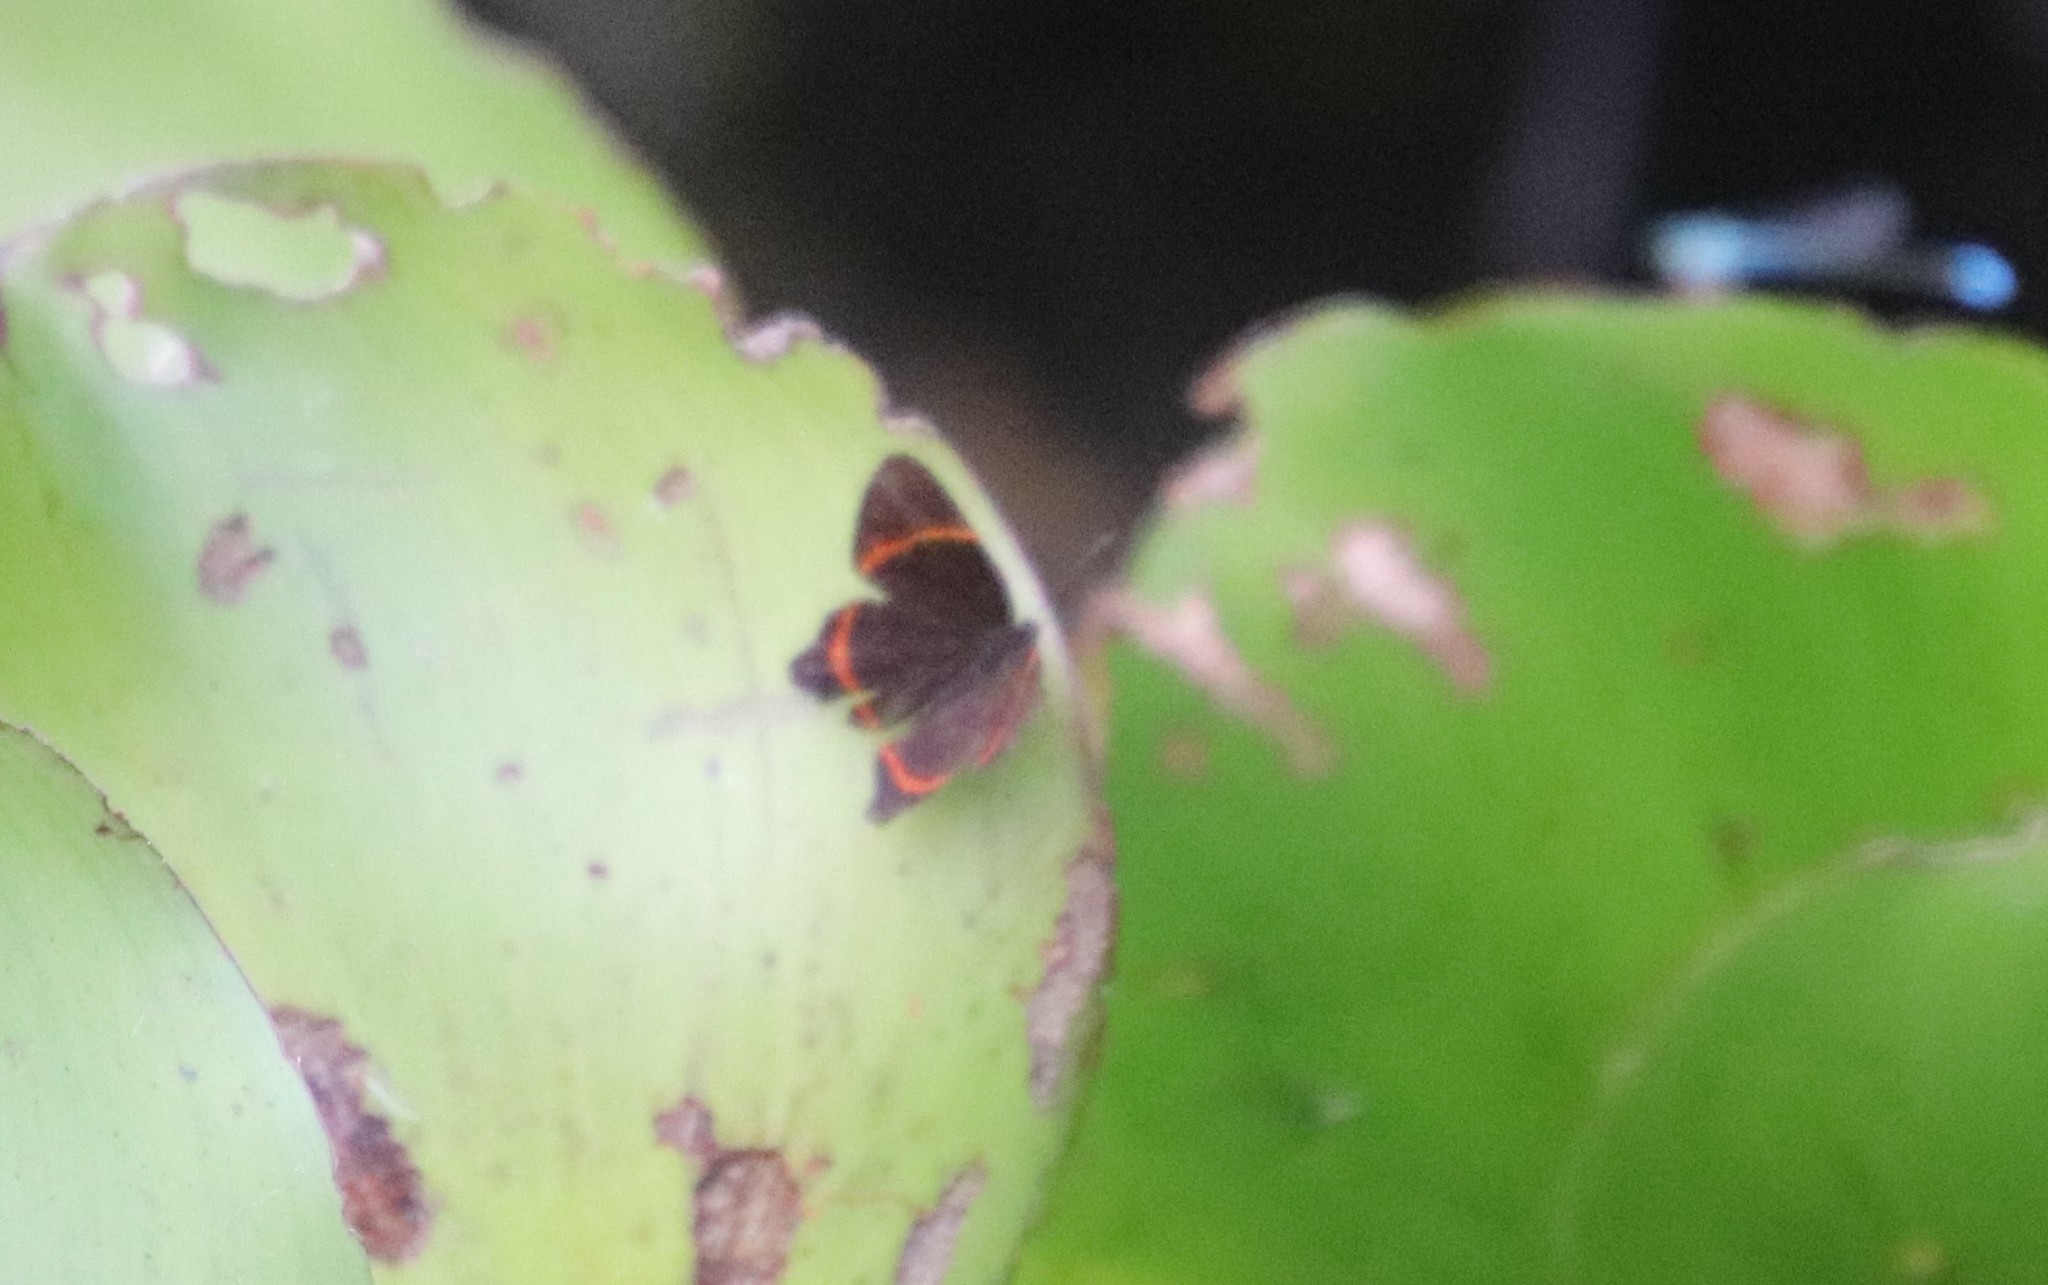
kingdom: Animalia
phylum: Arthropoda
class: Insecta
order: Lepidoptera
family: Riodinidae
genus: Riodina
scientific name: Riodina lysippus
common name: Lysippus metalmark
